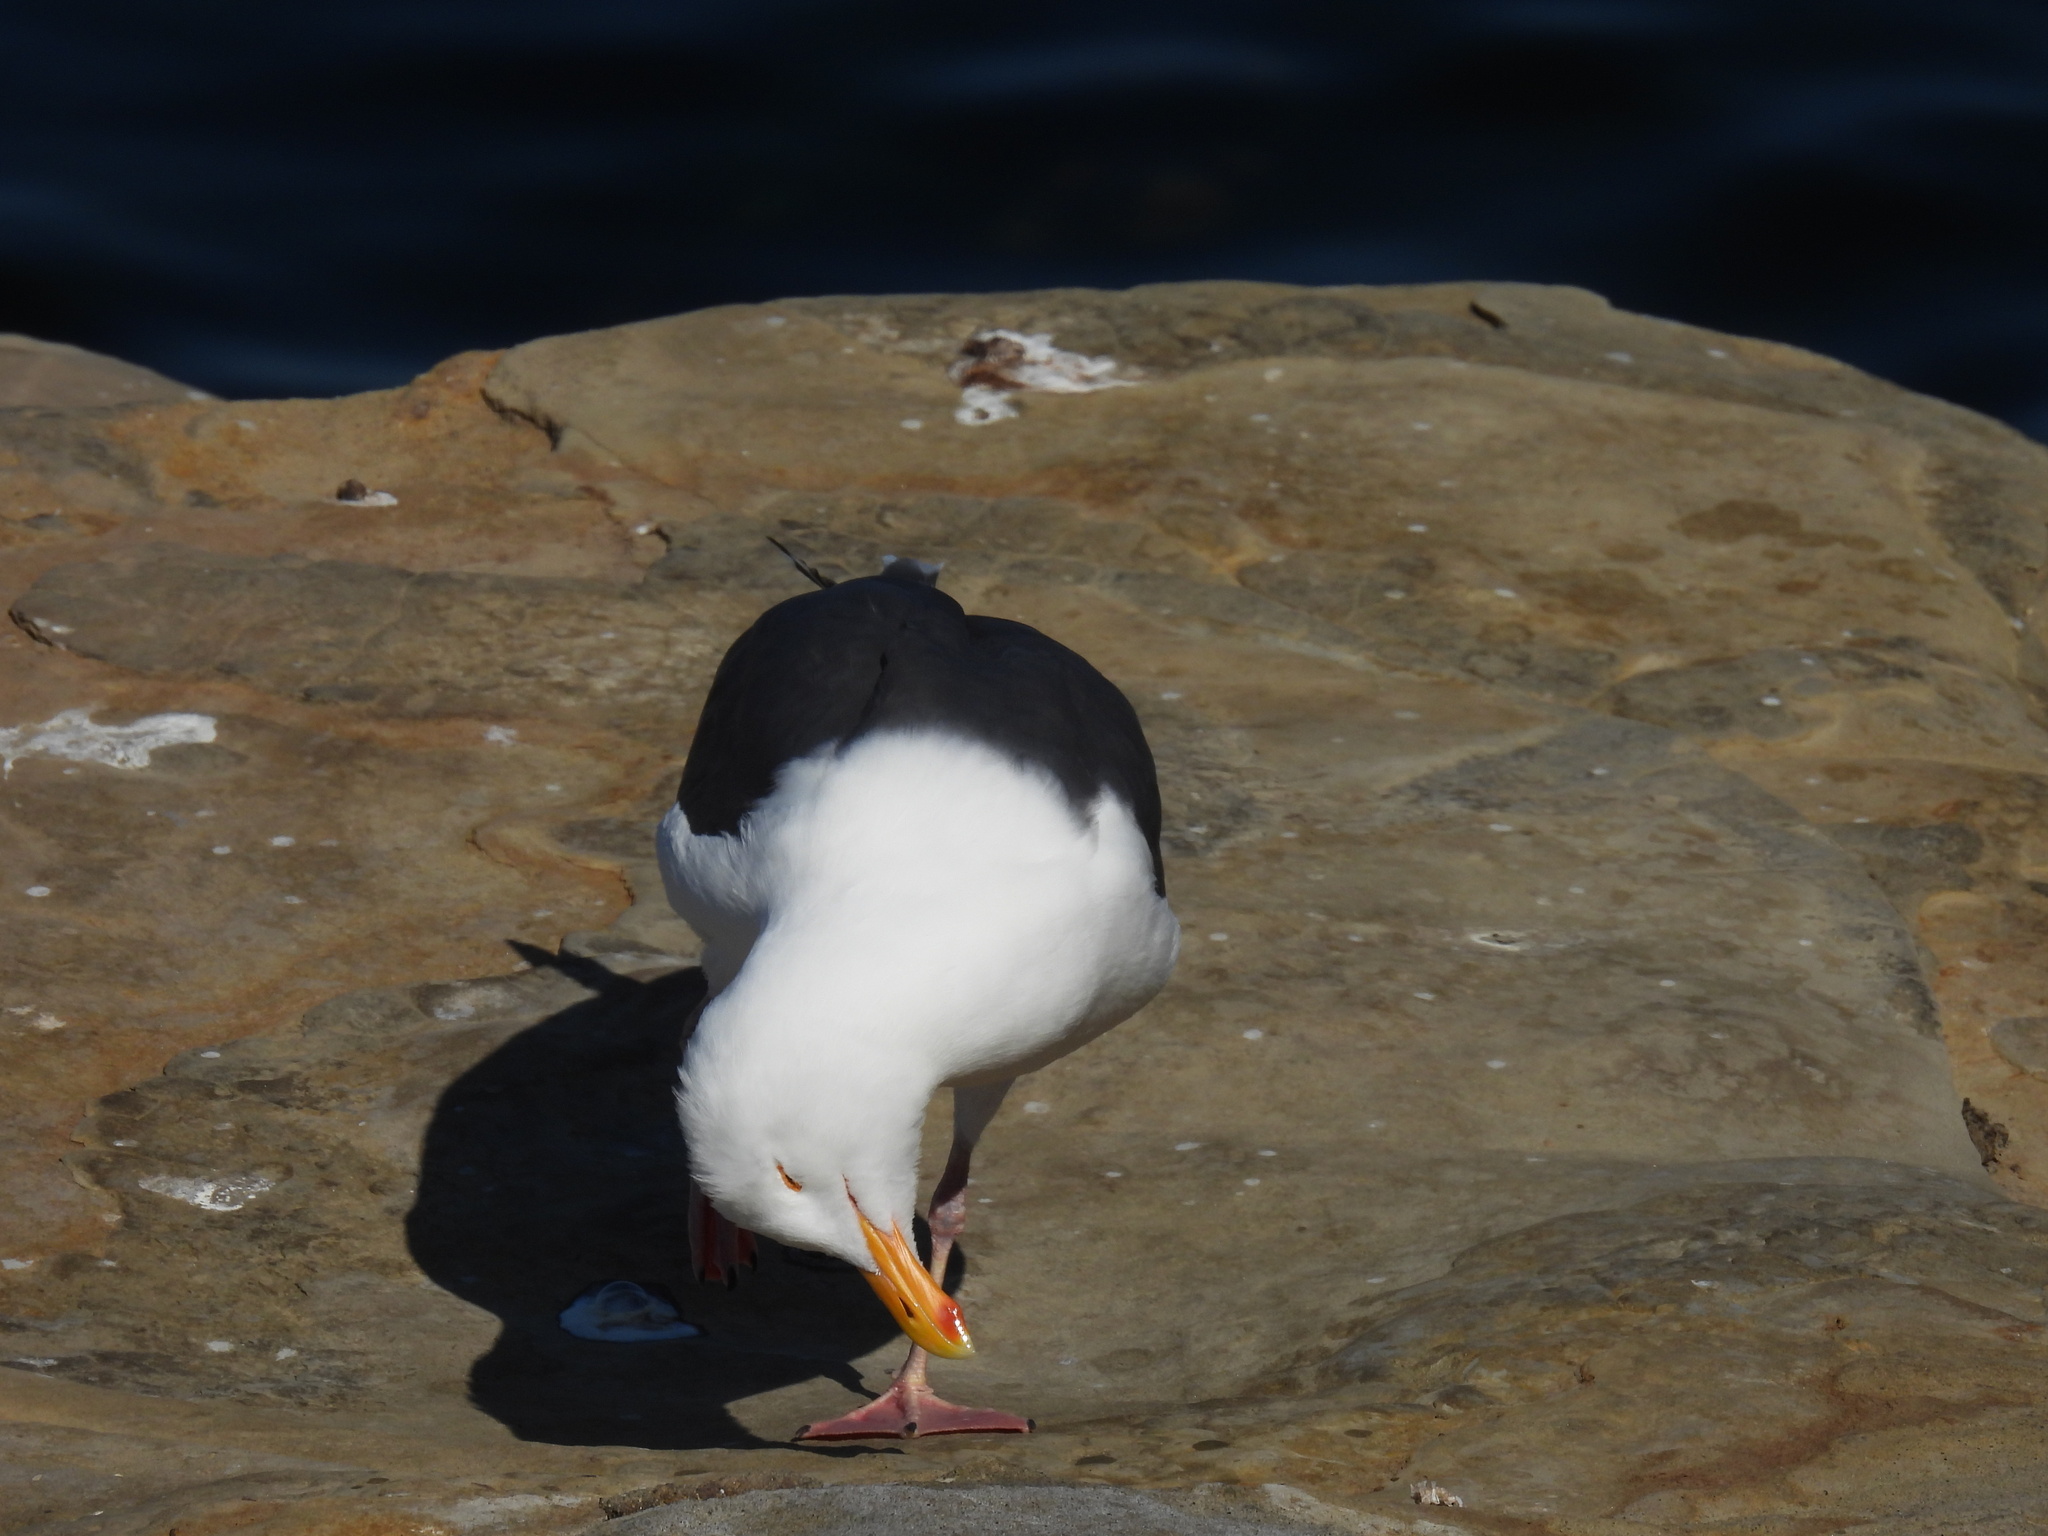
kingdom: Animalia
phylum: Chordata
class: Aves
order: Charadriiformes
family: Laridae
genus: Larus
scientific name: Larus occidentalis
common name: Western gull
